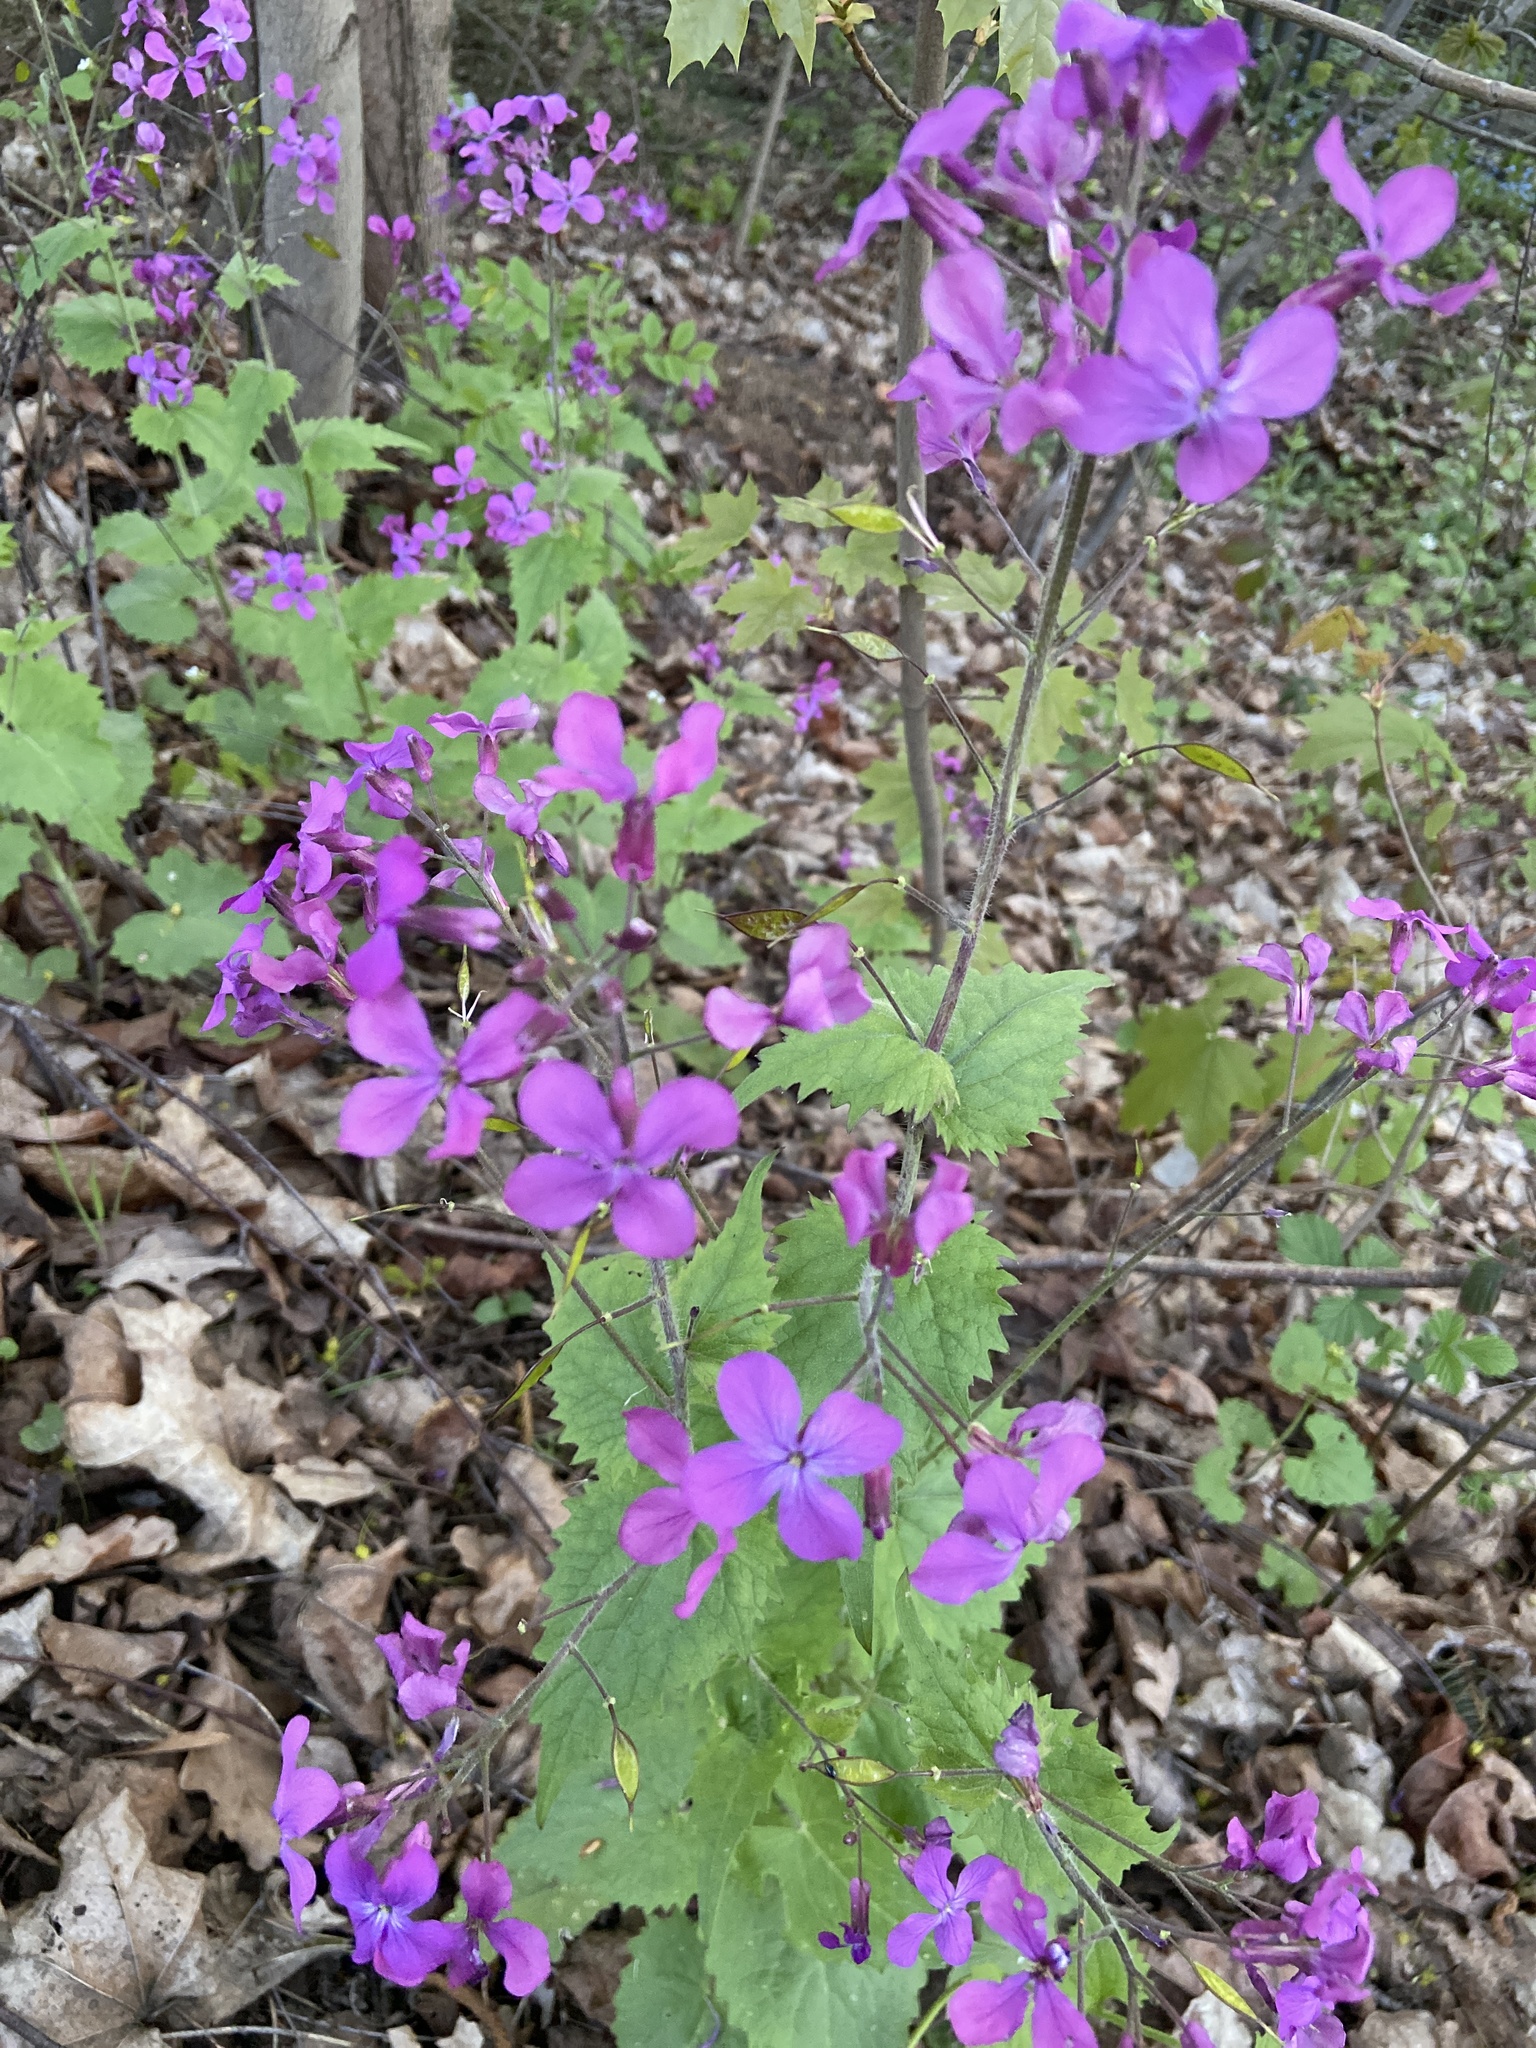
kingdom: Plantae
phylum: Tracheophyta
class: Magnoliopsida
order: Brassicales
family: Brassicaceae
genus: Lunaria
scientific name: Lunaria annua
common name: Honesty
